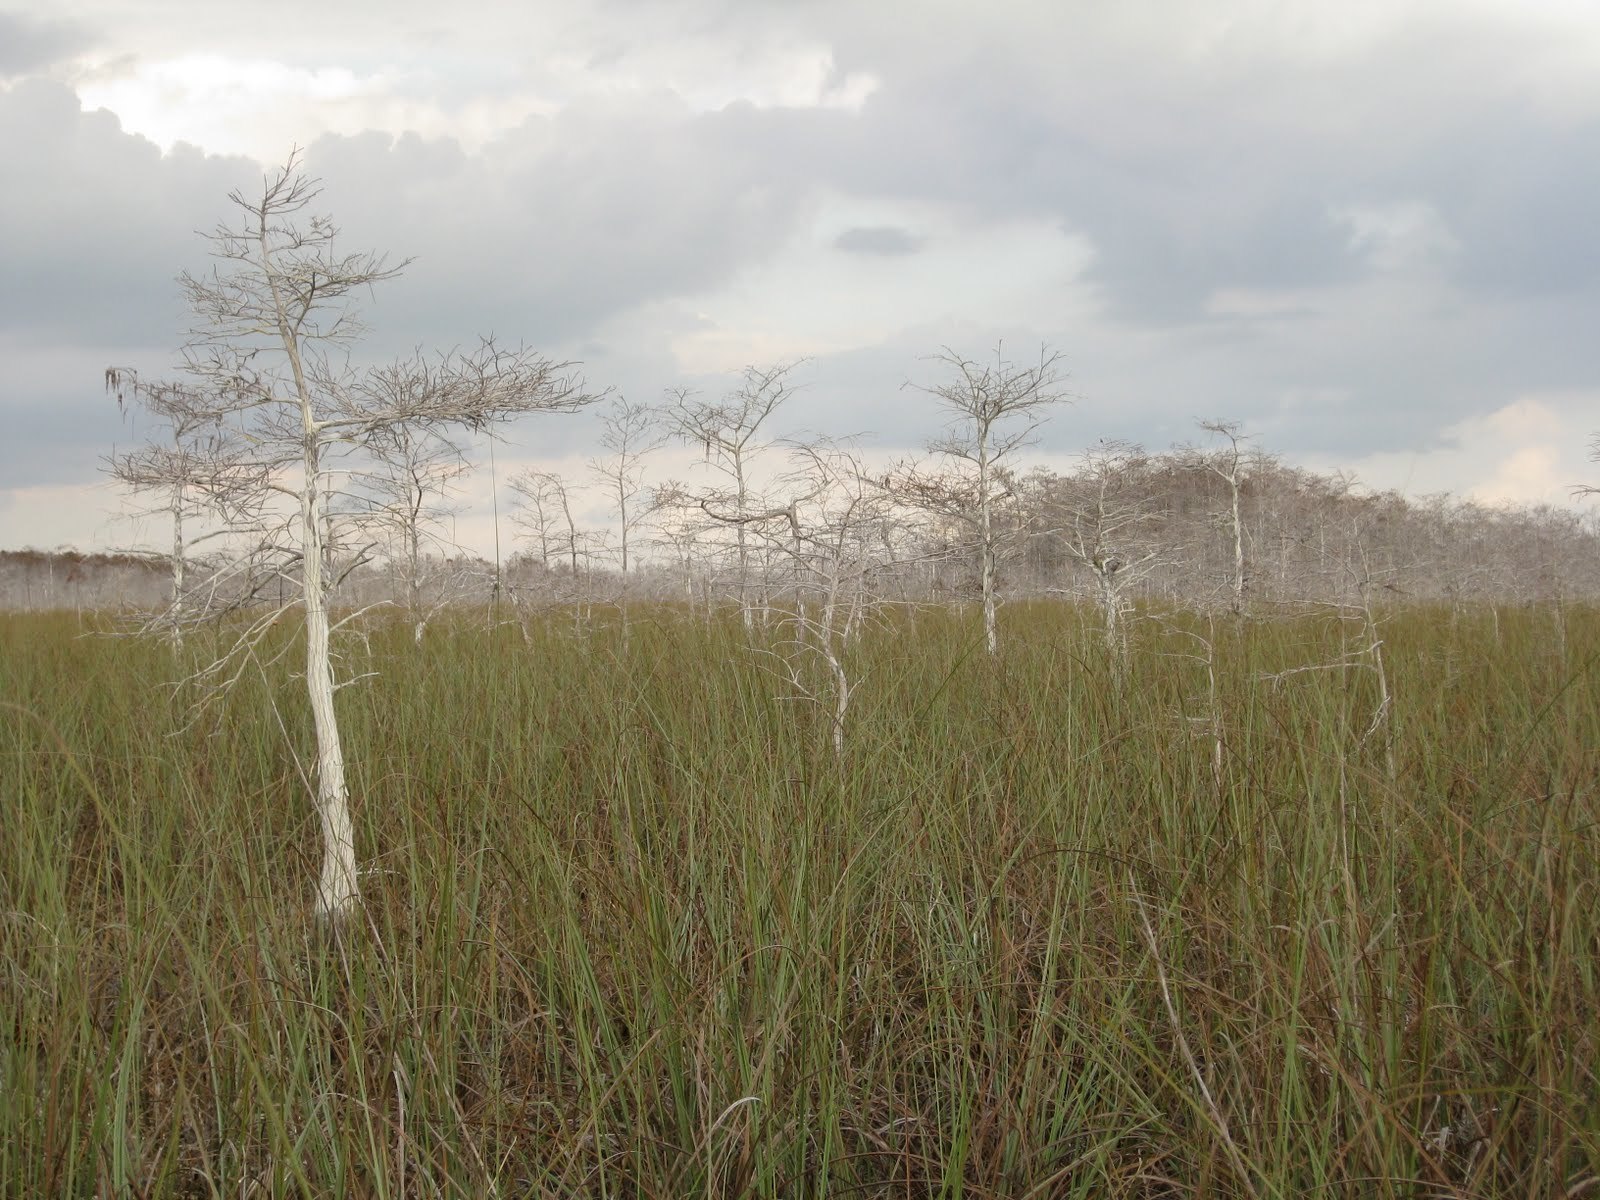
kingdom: Plantae
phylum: Tracheophyta
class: Pinopsida
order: Pinales
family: Cupressaceae
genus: Taxodium
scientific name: Taxodium distichum
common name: Bald cypress
